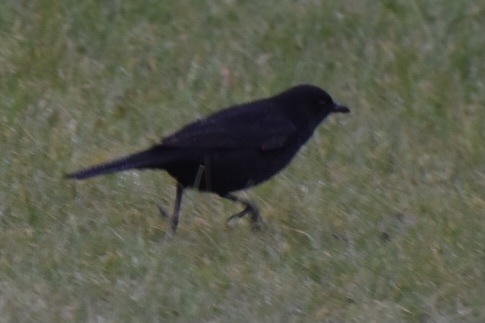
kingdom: Animalia
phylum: Chordata
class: Aves
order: Passeriformes
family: Turdidae
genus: Turdus
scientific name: Turdus merula
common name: Common blackbird
